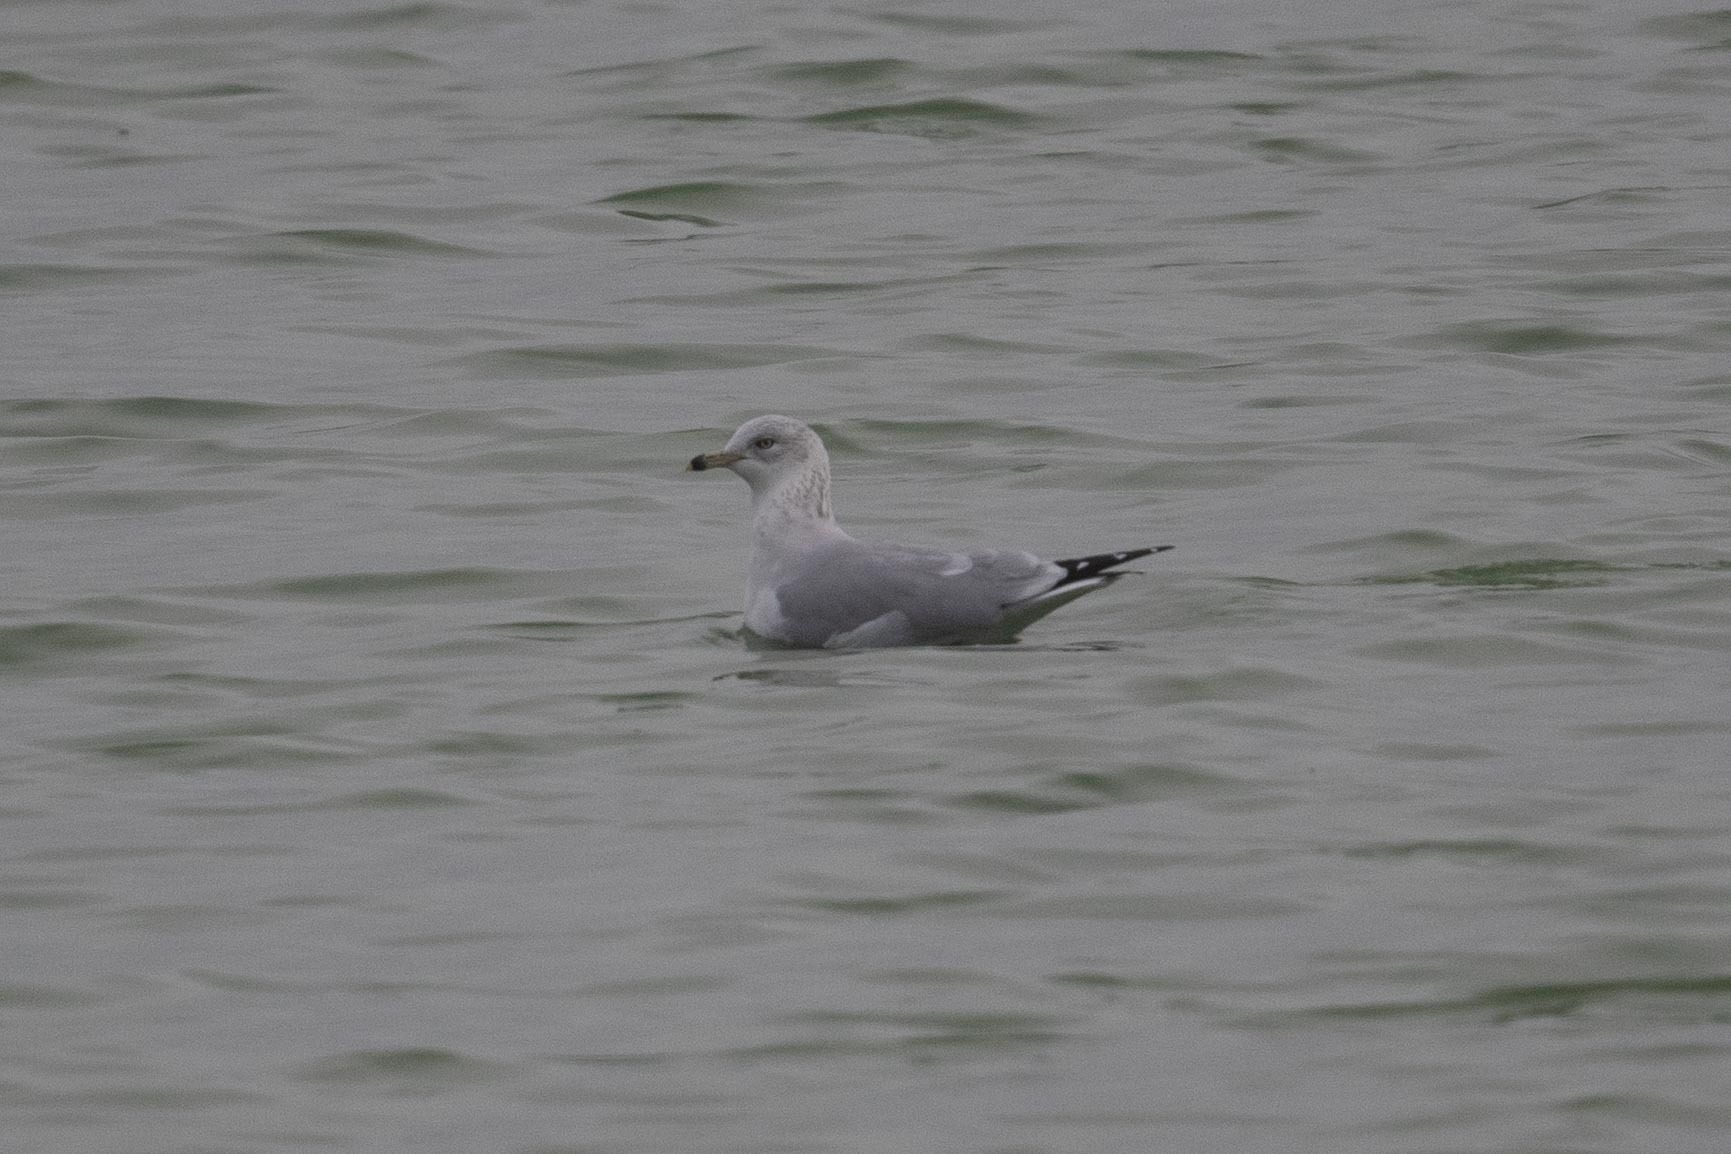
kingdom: Animalia
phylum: Chordata
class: Aves
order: Charadriiformes
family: Laridae
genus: Larus
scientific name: Larus delawarensis
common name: Ring-billed gull
